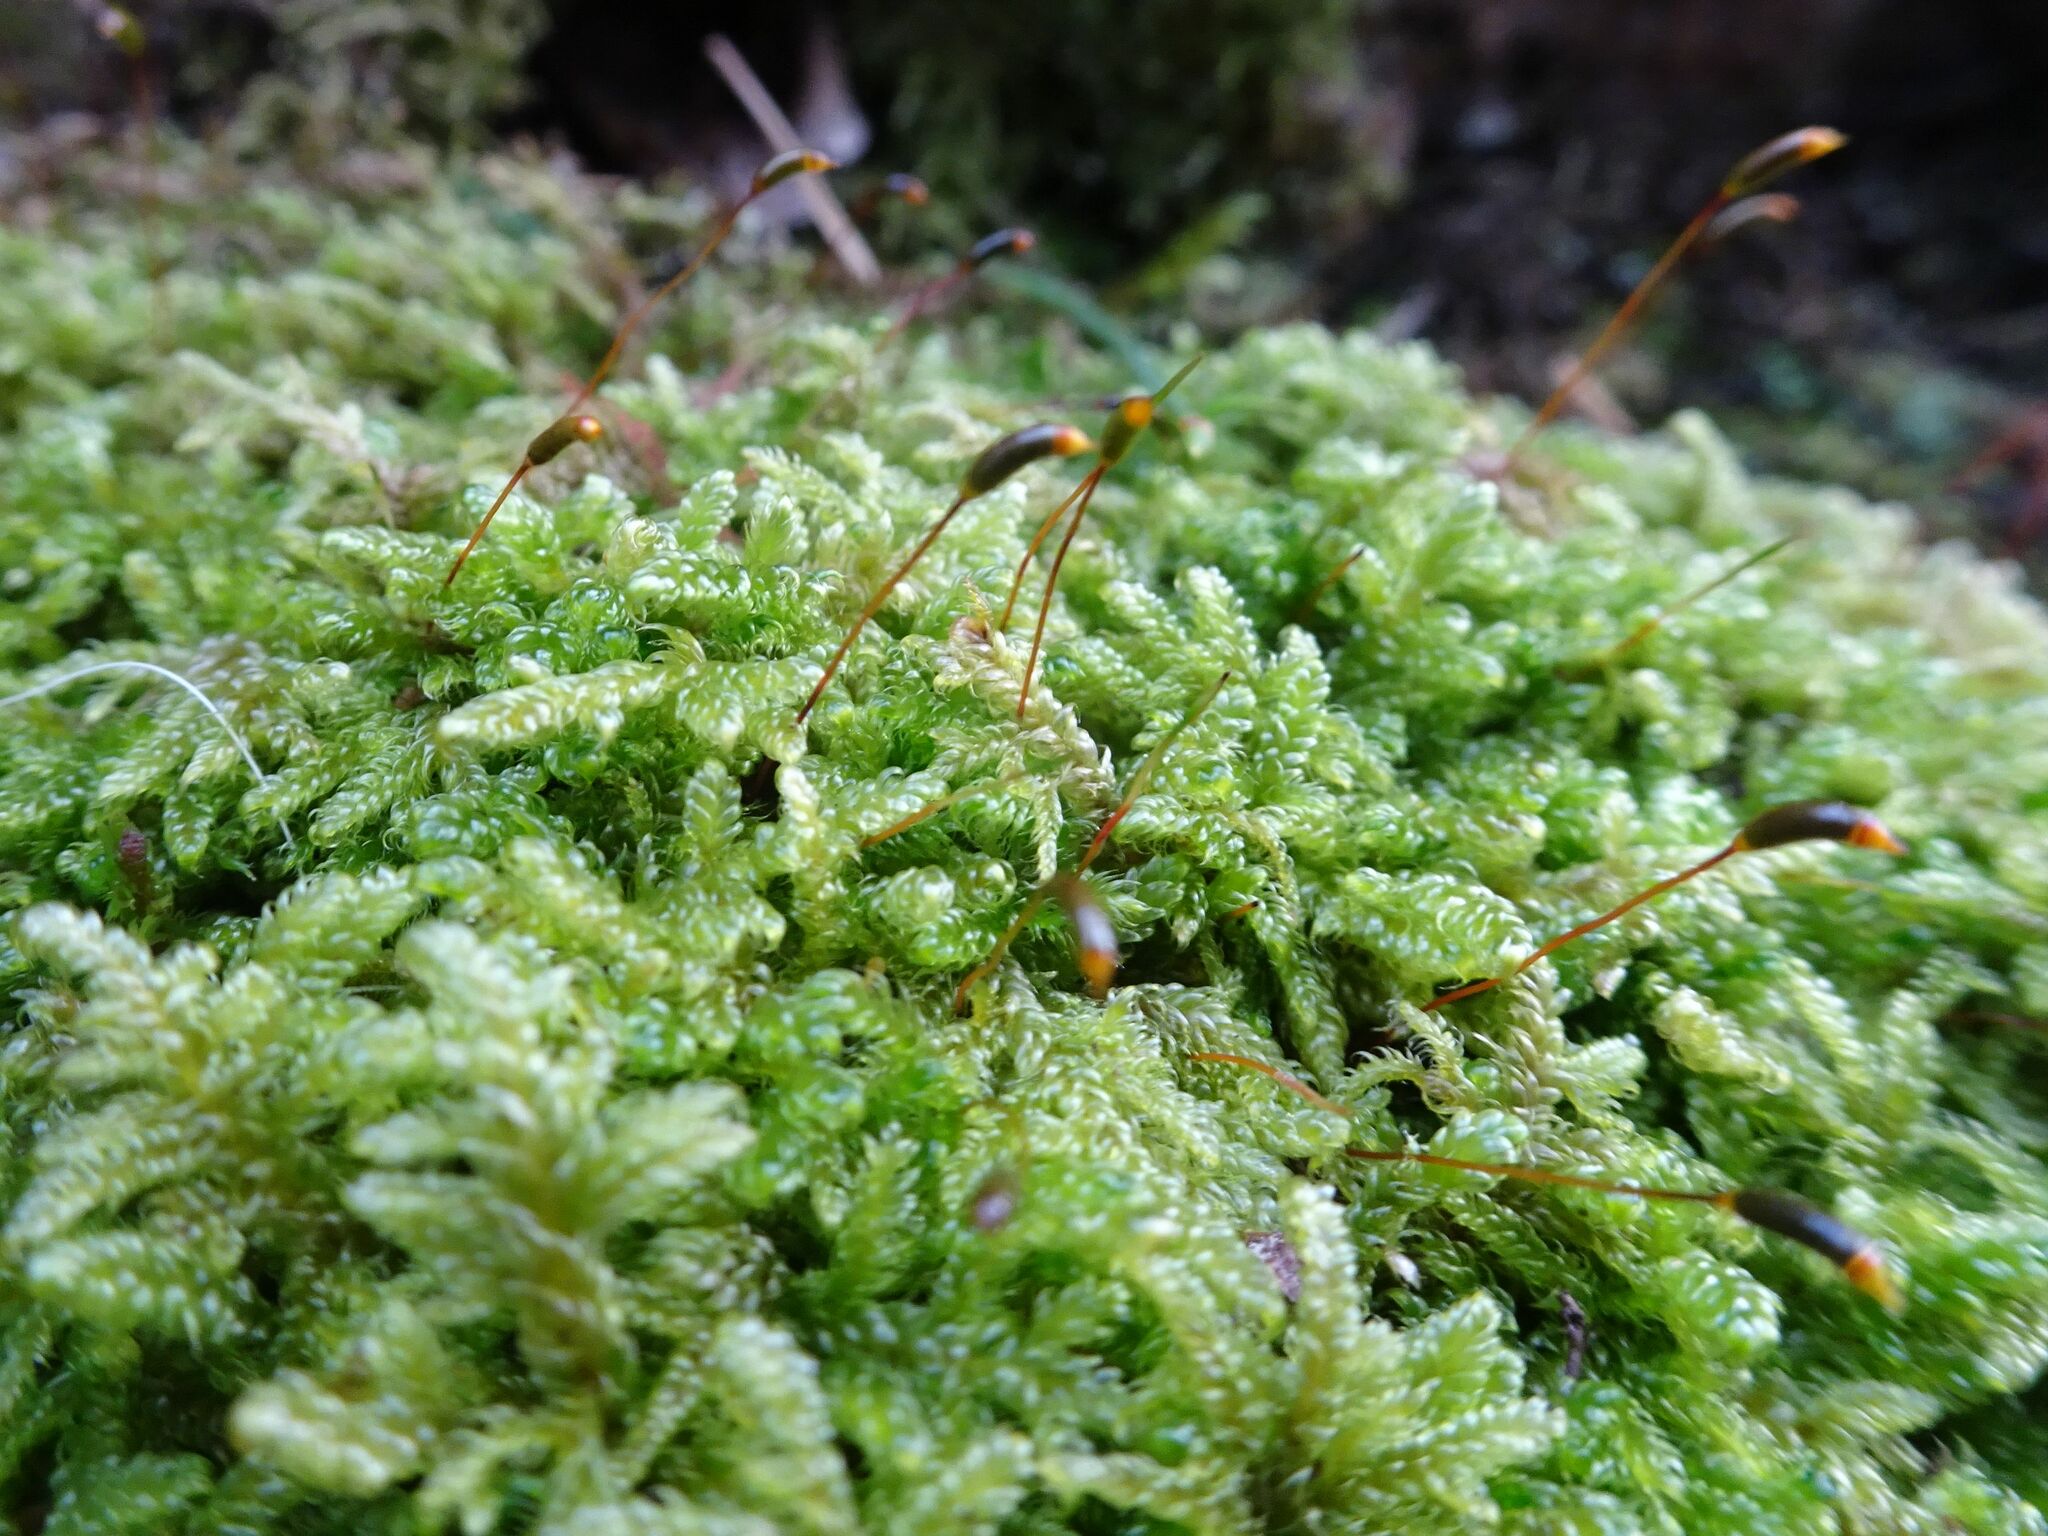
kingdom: Plantae
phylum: Bryophyta
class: Bryopsida
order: Hypnales
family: Hypnaceae
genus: Hypnum
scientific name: Hypnum cupressiforme
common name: Cypress-leaved plait-moss
